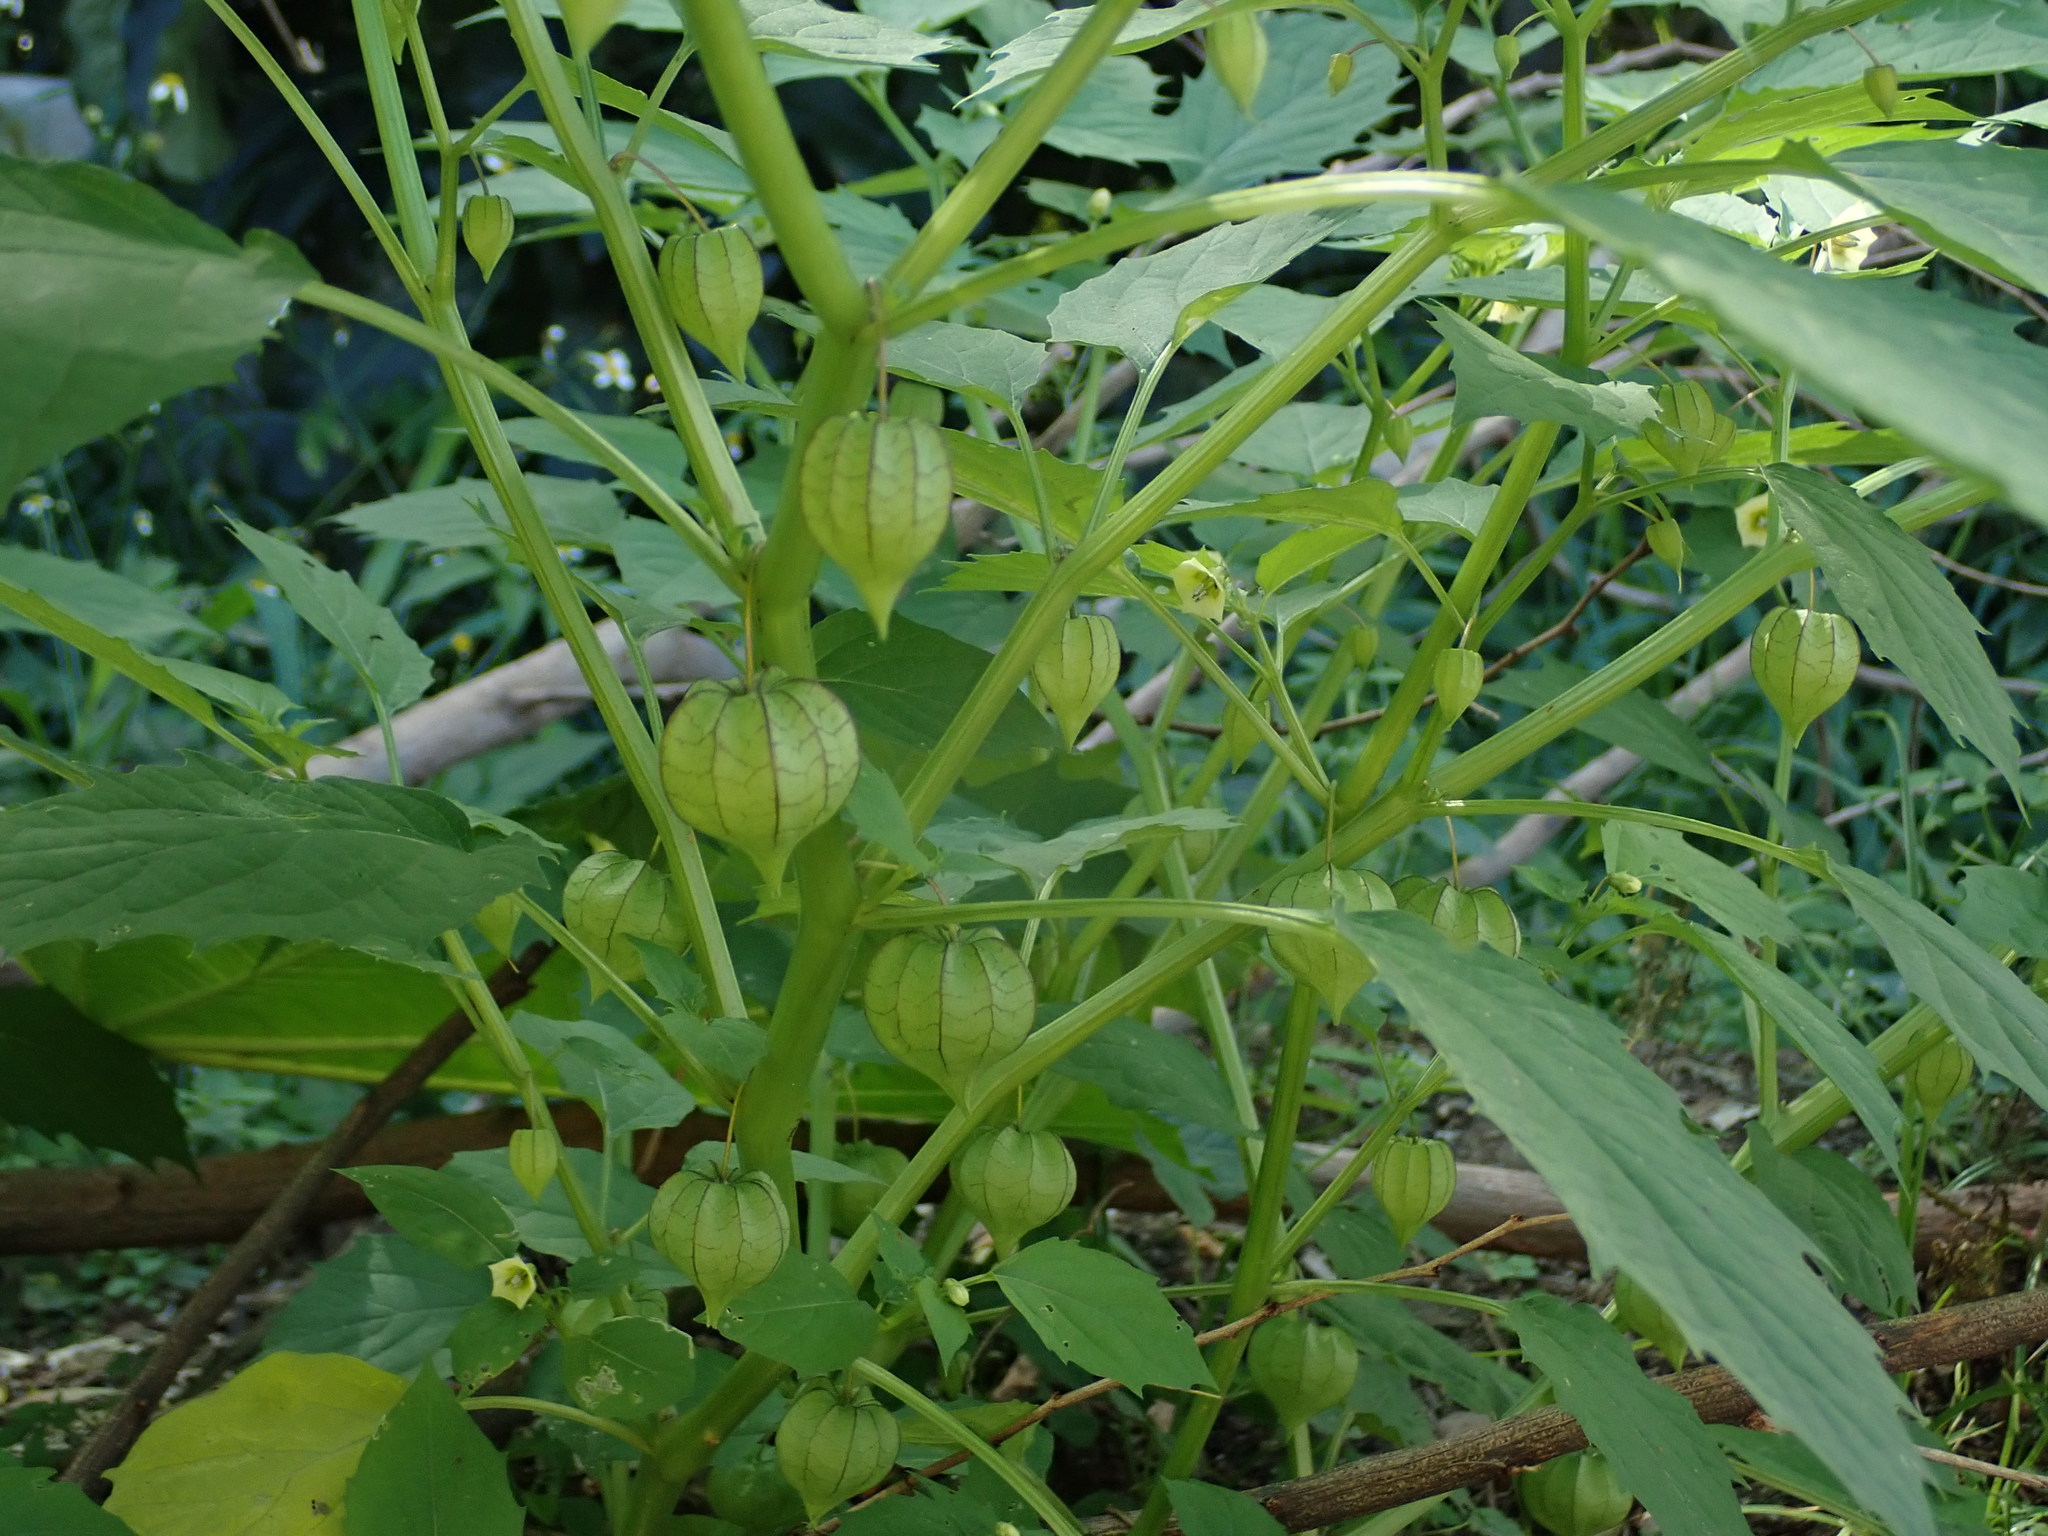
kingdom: Plantae
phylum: Tracheophyta
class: Magnoliopsida
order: Solanales
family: Solanaceae
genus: Physalis
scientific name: Physalis angulata
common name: Angular winter-cherry
